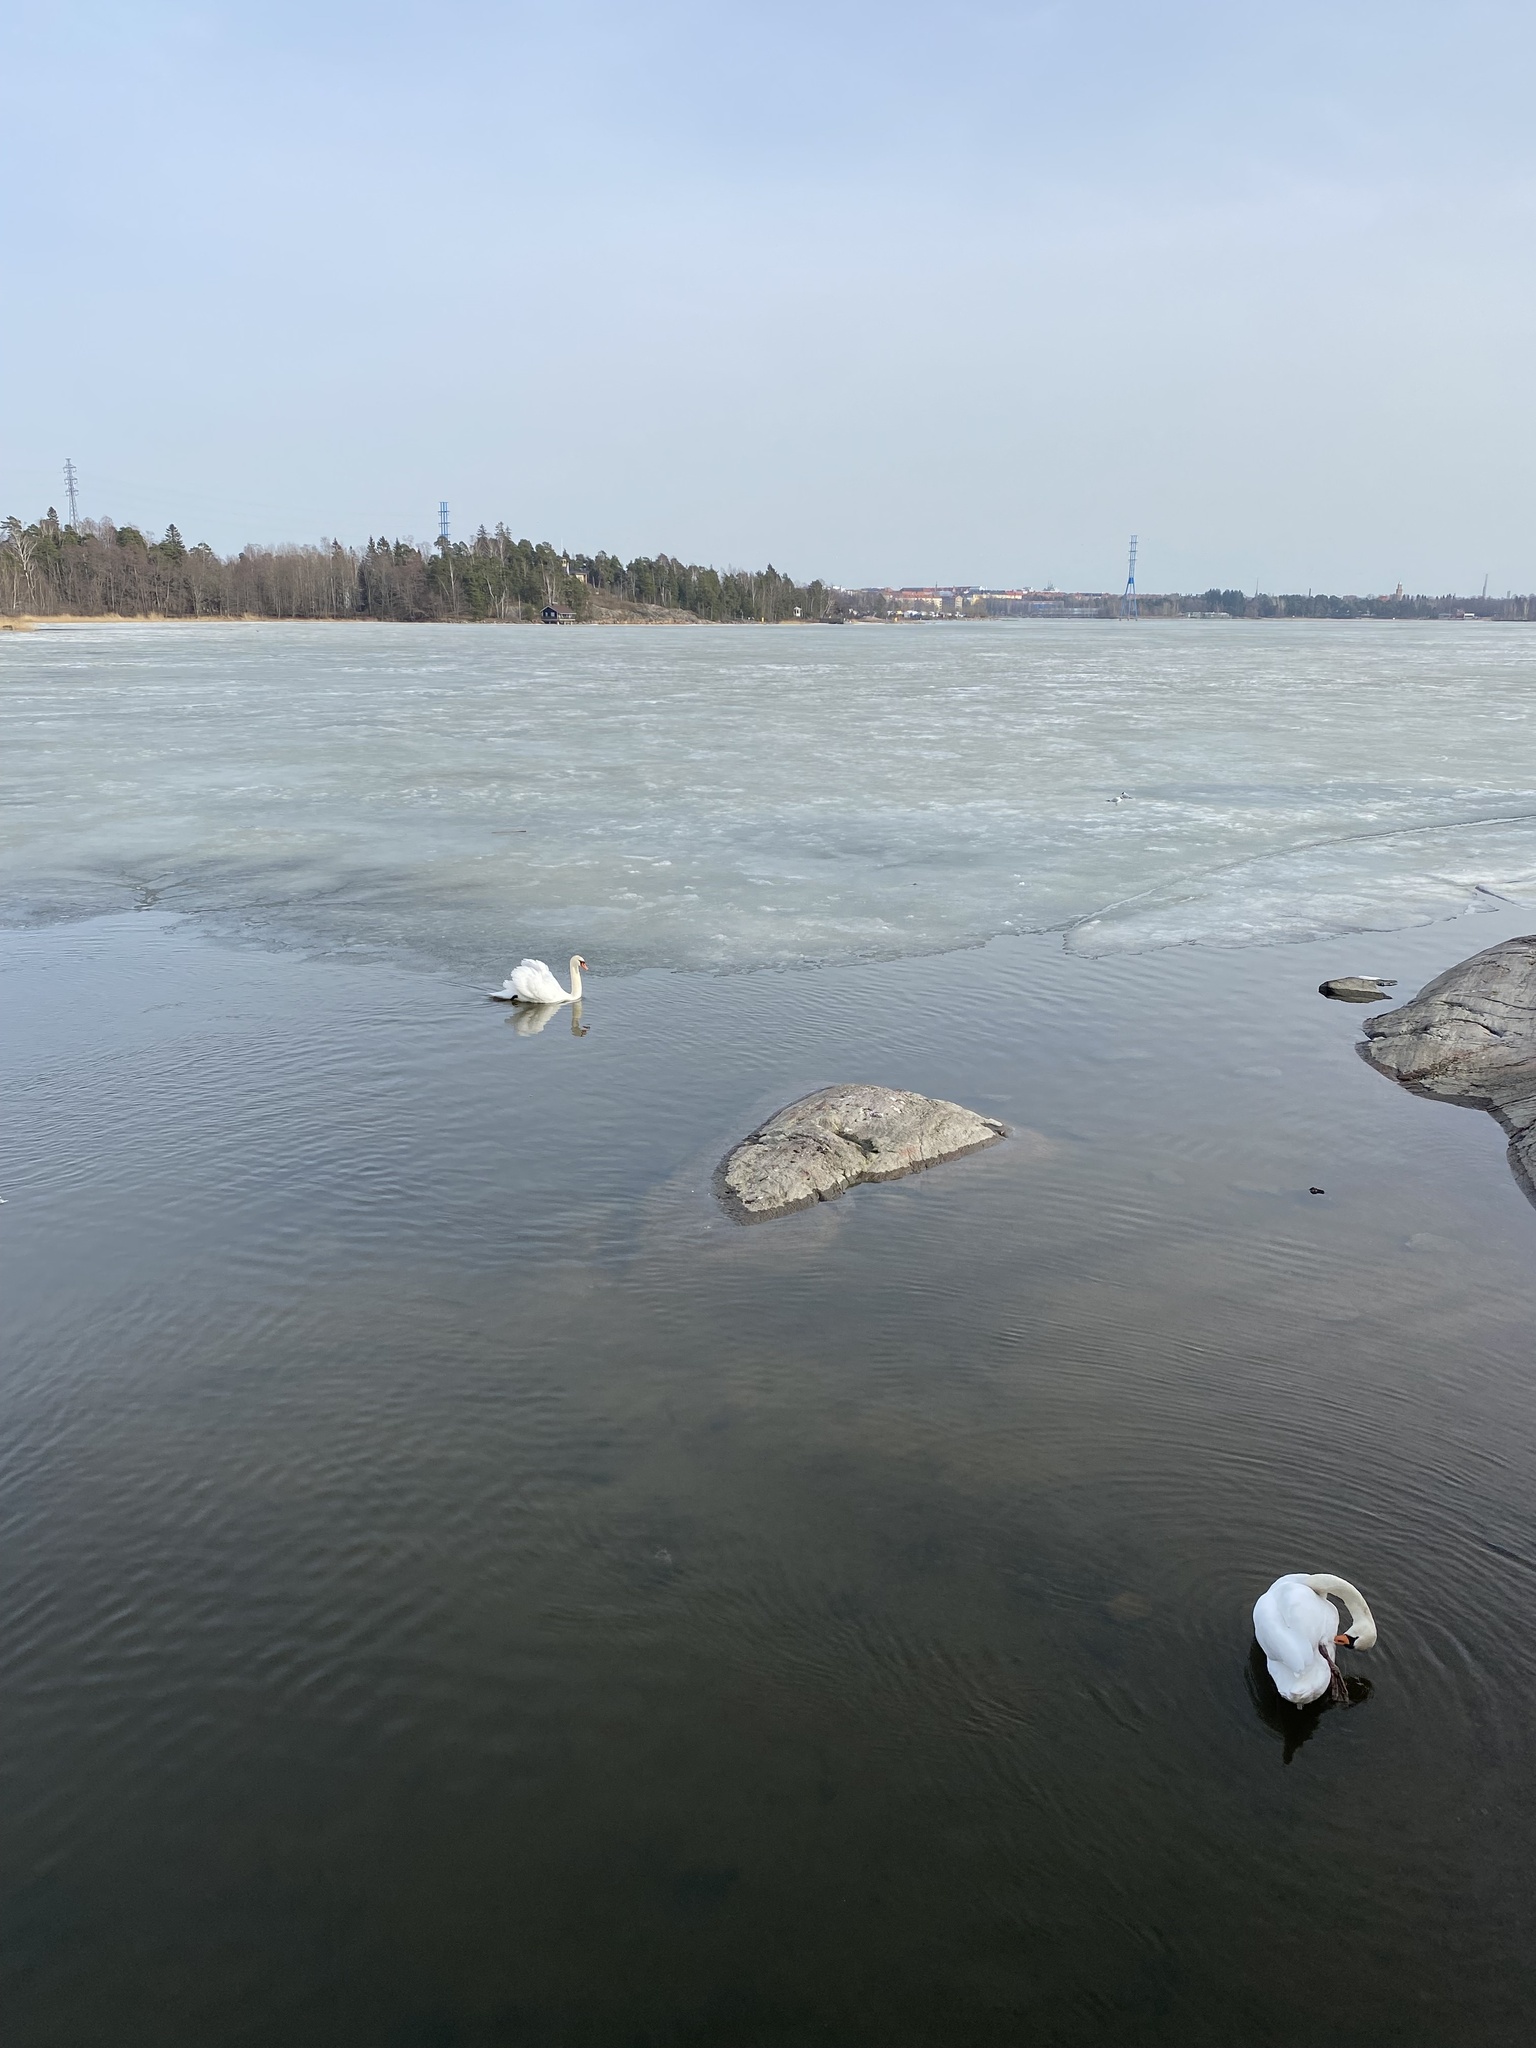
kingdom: Animalia
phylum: Chordata
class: Aves
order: Anseriformes
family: Anatidae
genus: Cygnus
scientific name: Cygnus olor
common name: Mute swan
